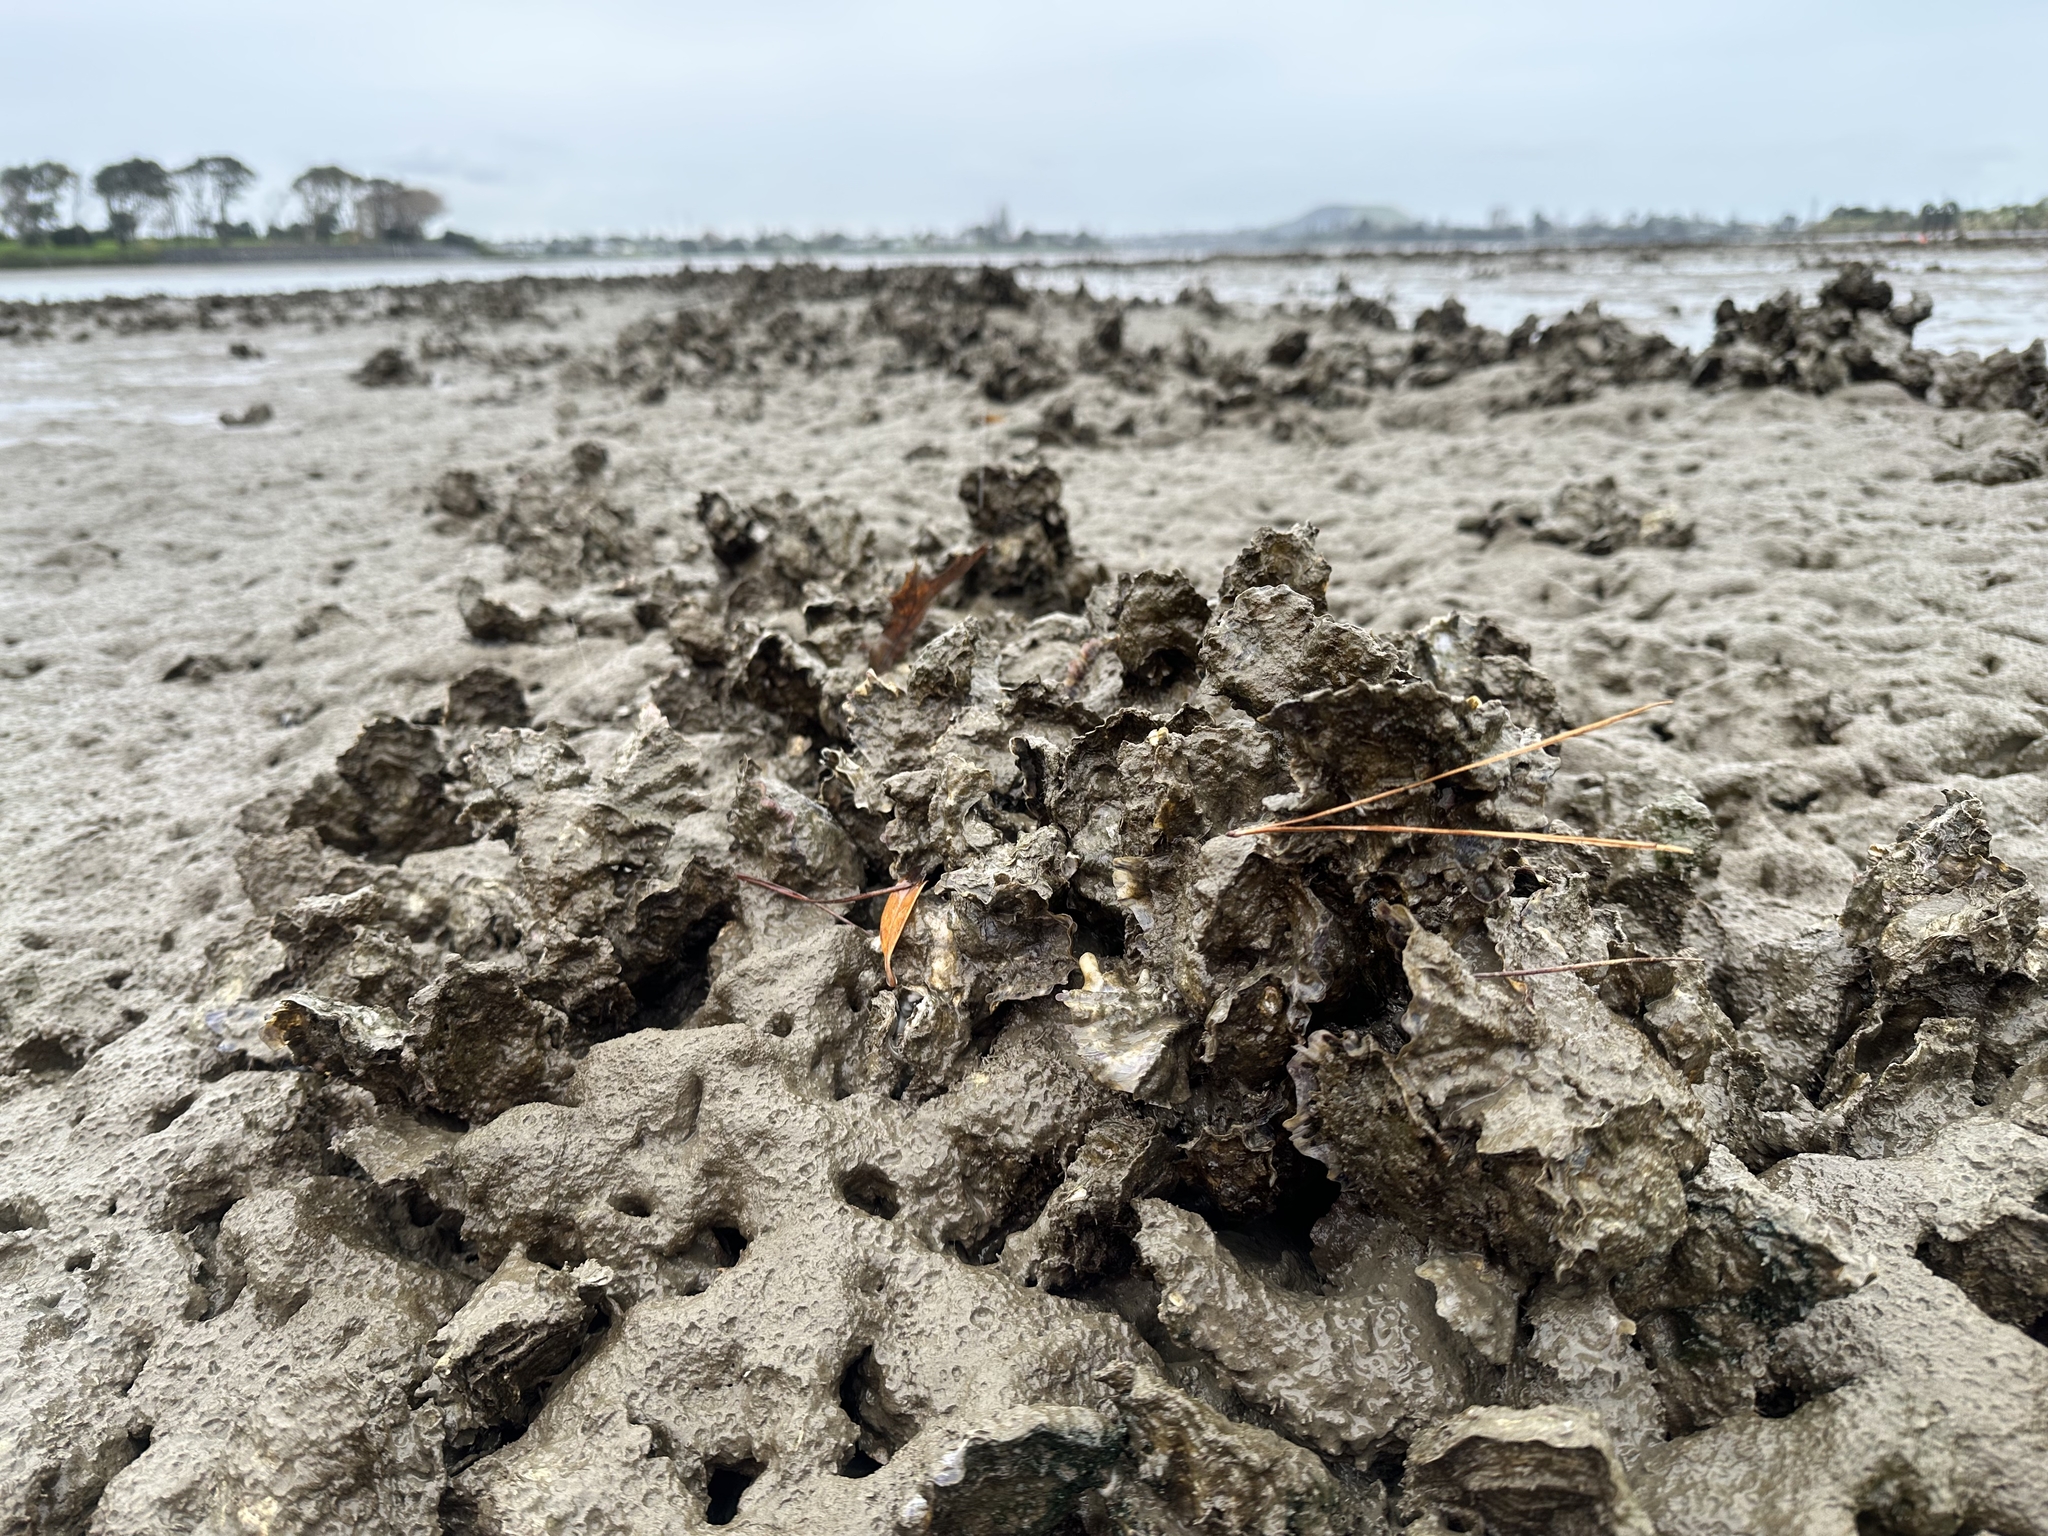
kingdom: Animalia
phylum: Mollusca
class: Bivalvia
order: Ostreida
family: Ostreidae
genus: Magallana
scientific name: Magallana gigas
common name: Pacific oyster
